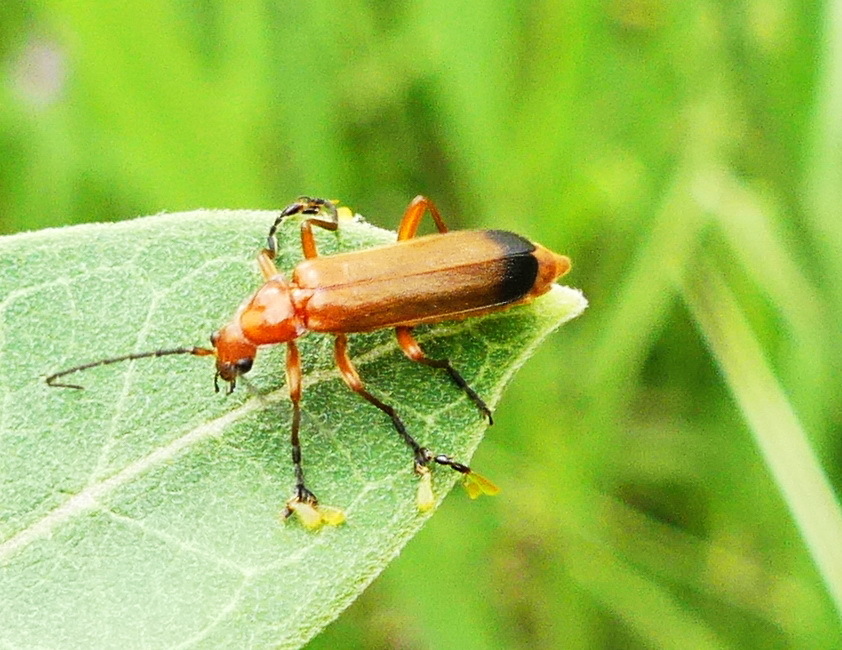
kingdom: Animalia
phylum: Arthropoda
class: Insecta
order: Coleoptera
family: Cantharidae
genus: Rhagonycha
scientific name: Rhagonycha fulva
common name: Common red soldier beetle
